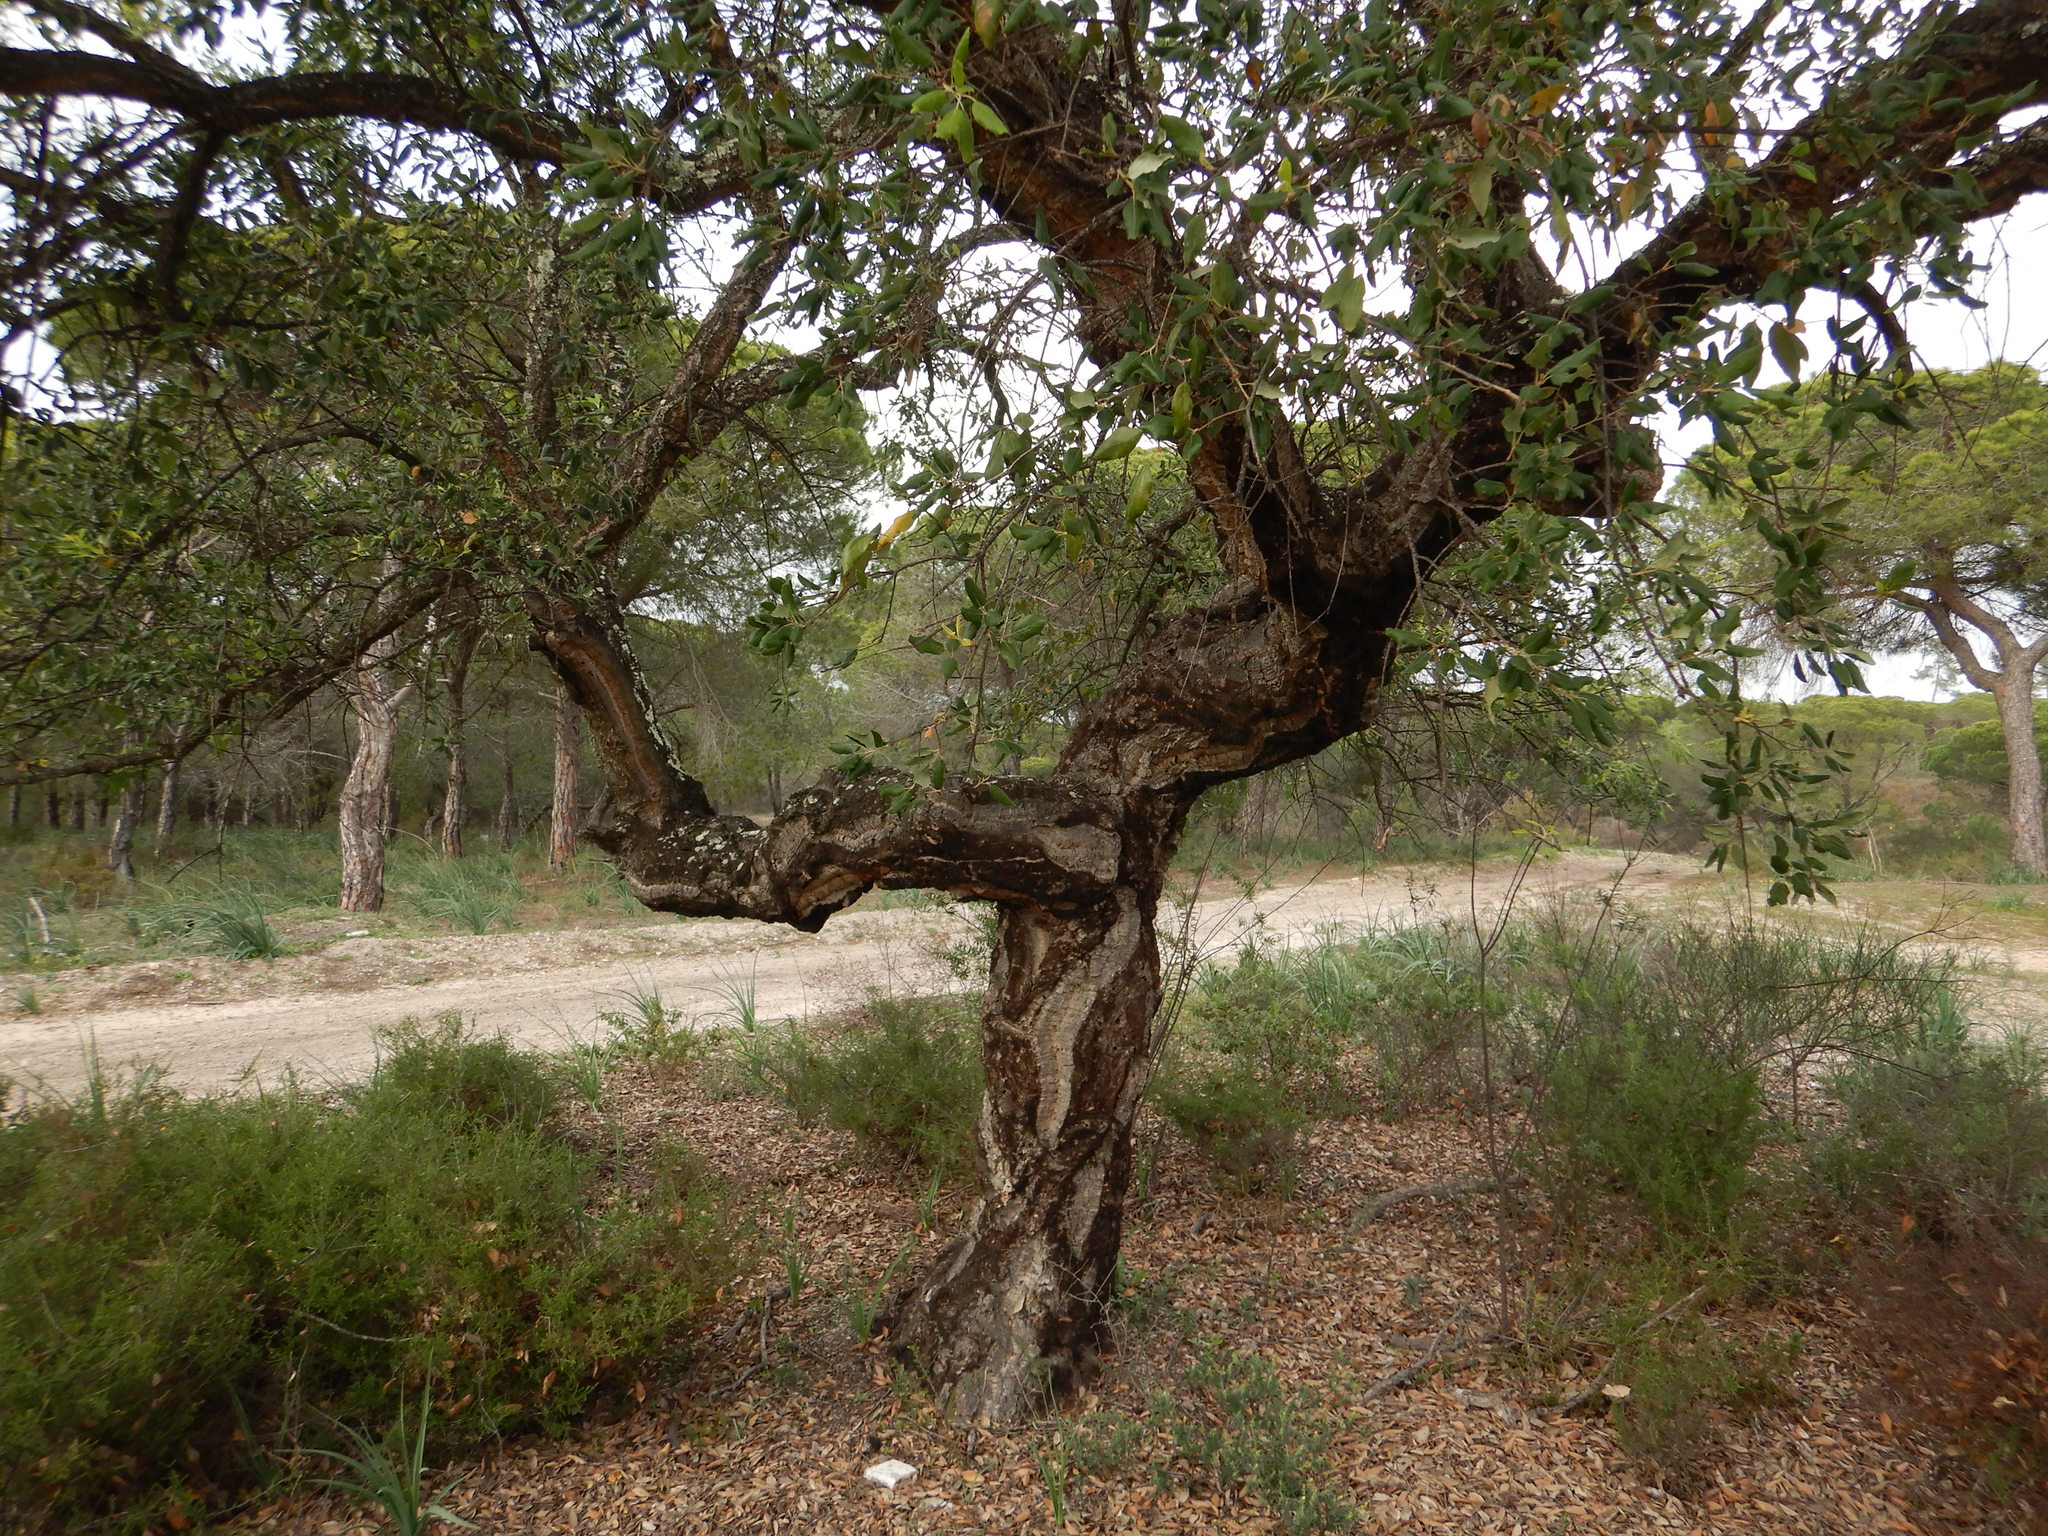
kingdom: Plantae
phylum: Tracheophyta
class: Magnoliopsida
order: Fagales
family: Fagaceae
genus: Quercus
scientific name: Quercus suber
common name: Cork oak
